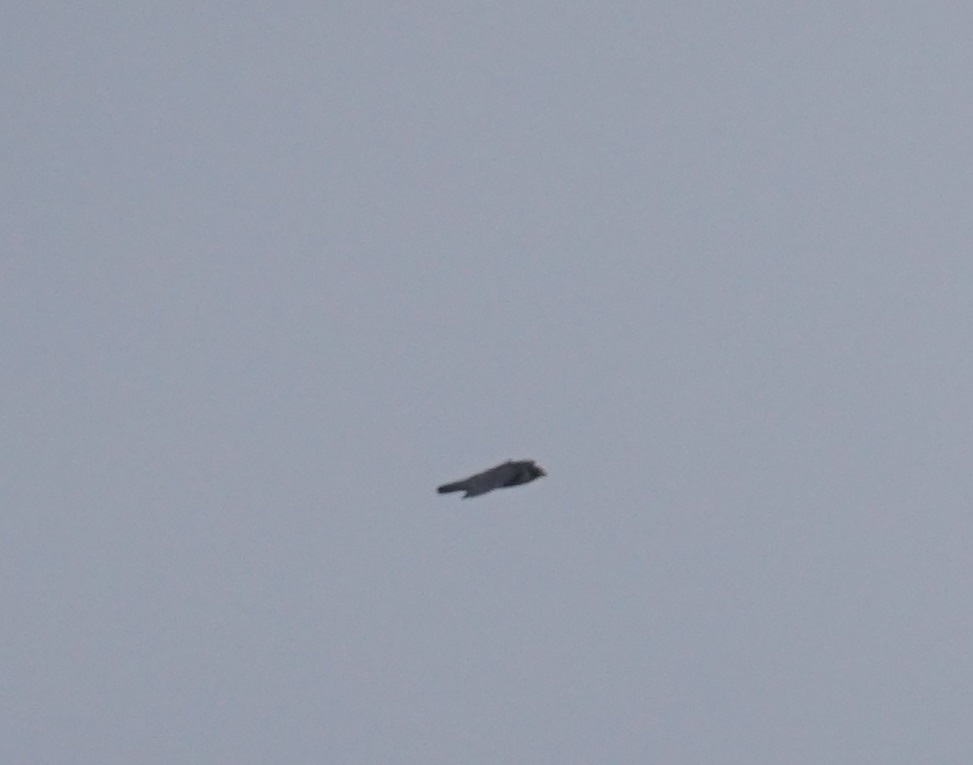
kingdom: Animalia
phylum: Chordata
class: Aves
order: Falconiformes
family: Falconidae
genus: Falco
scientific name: Falco peregrinus
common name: Peregrine falcon
